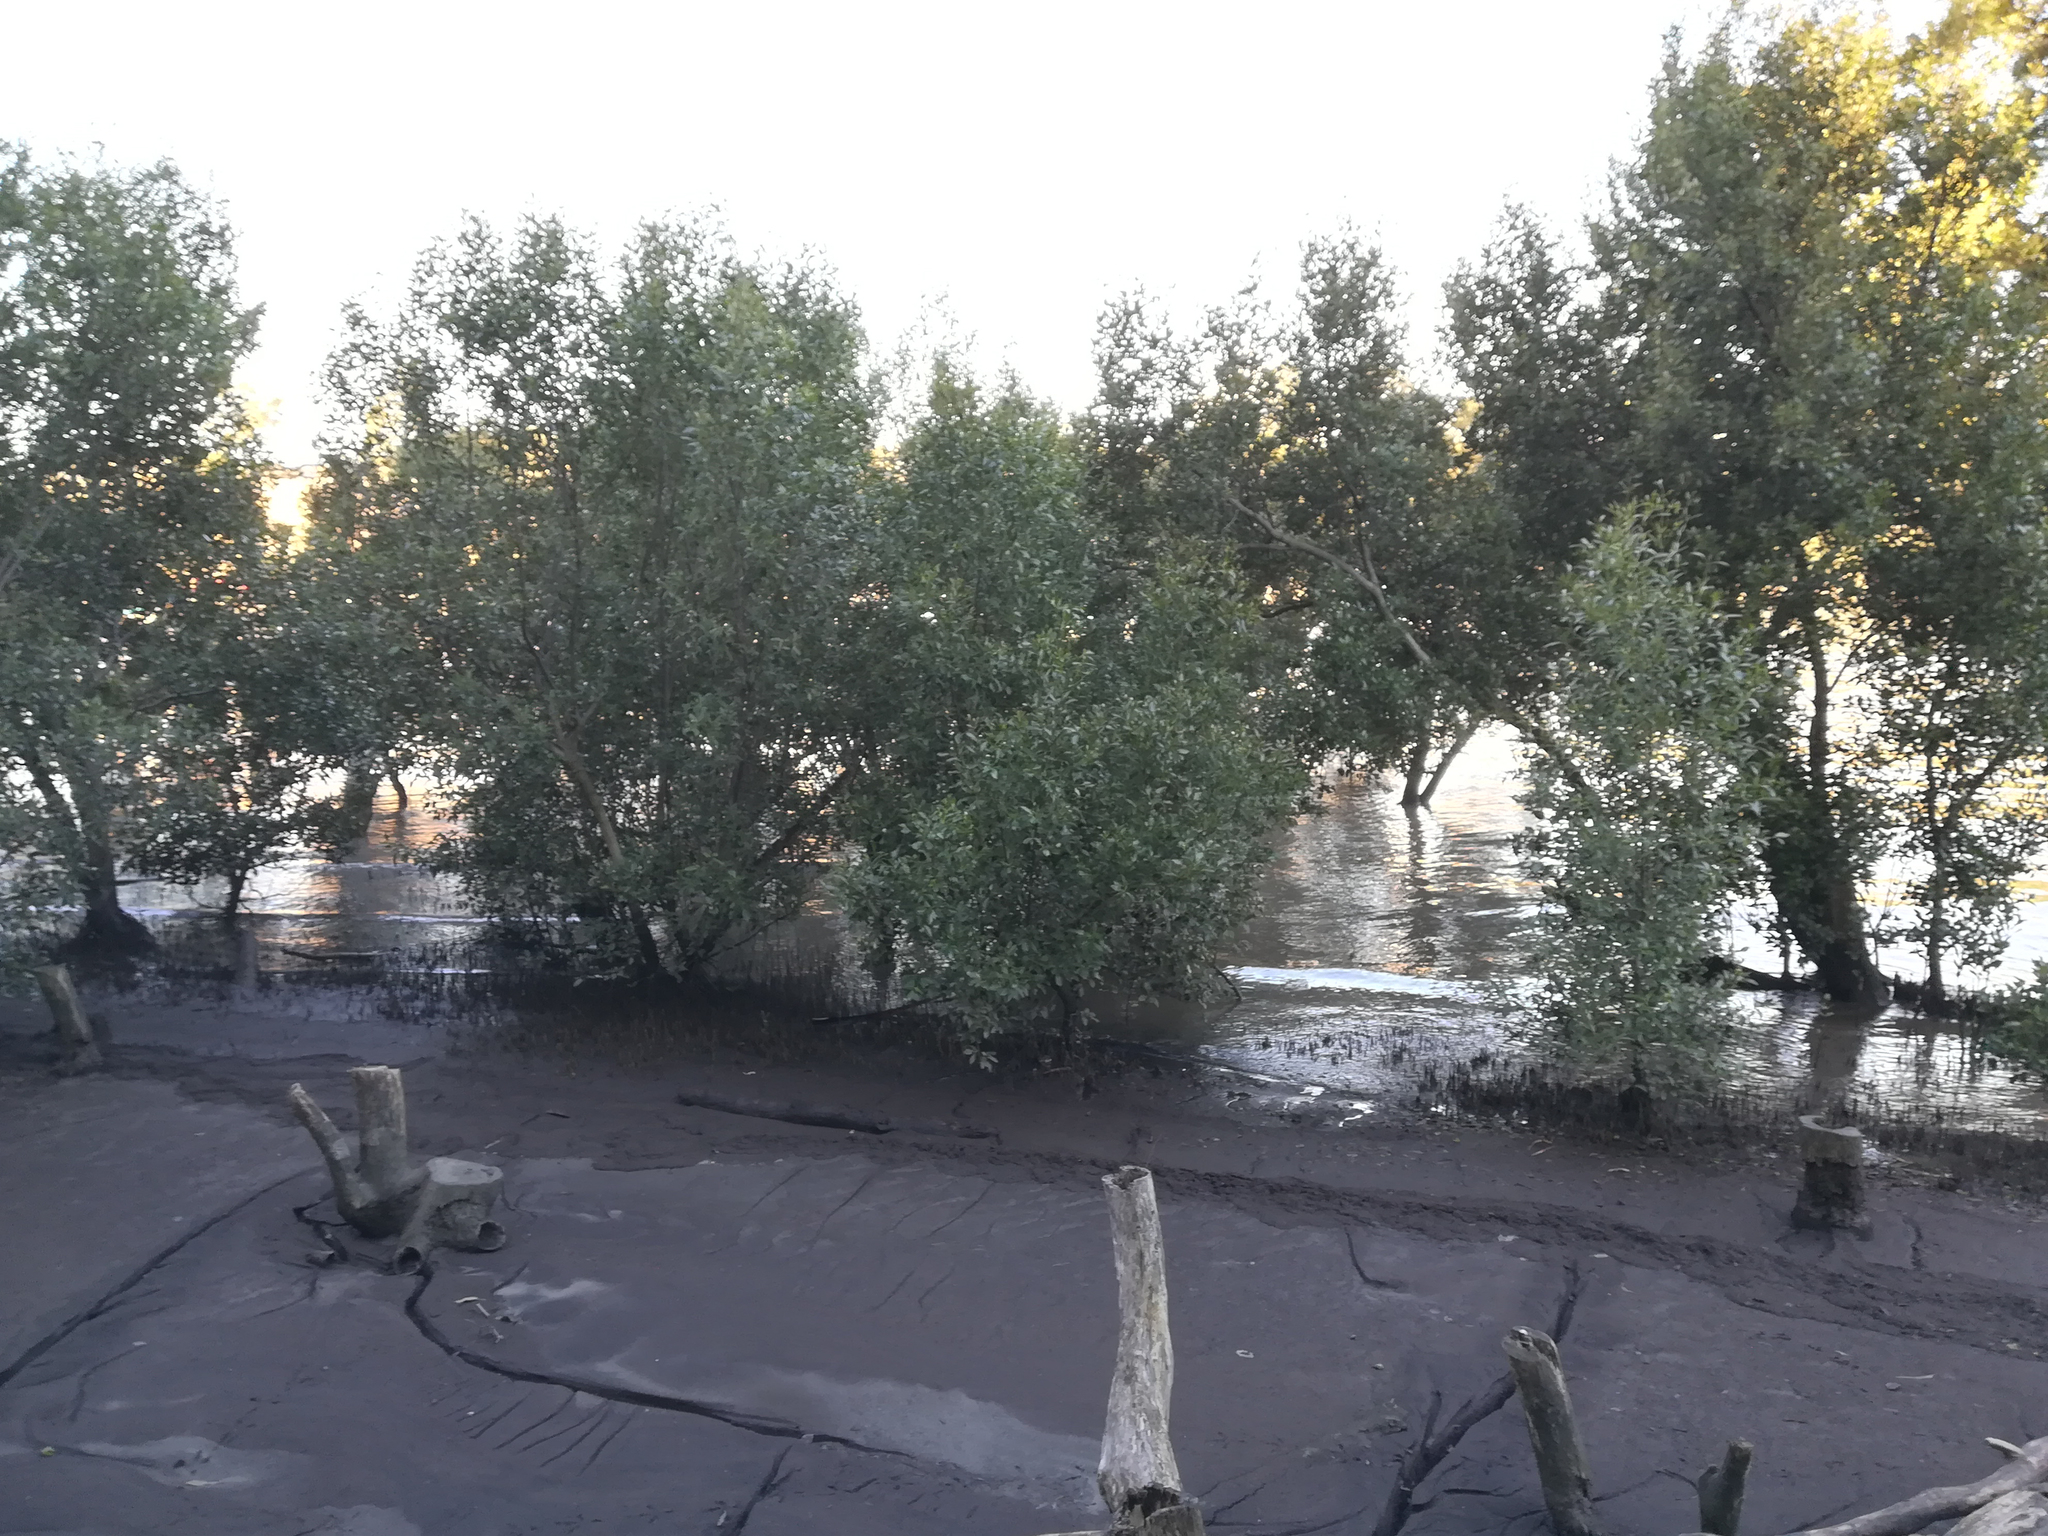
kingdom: Plantae
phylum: Tracheophyta
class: Magnoliopsida
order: Lamiales
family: Acanthaceae
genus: Avicennia
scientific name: Avicennia marina
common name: Gray mangrove
